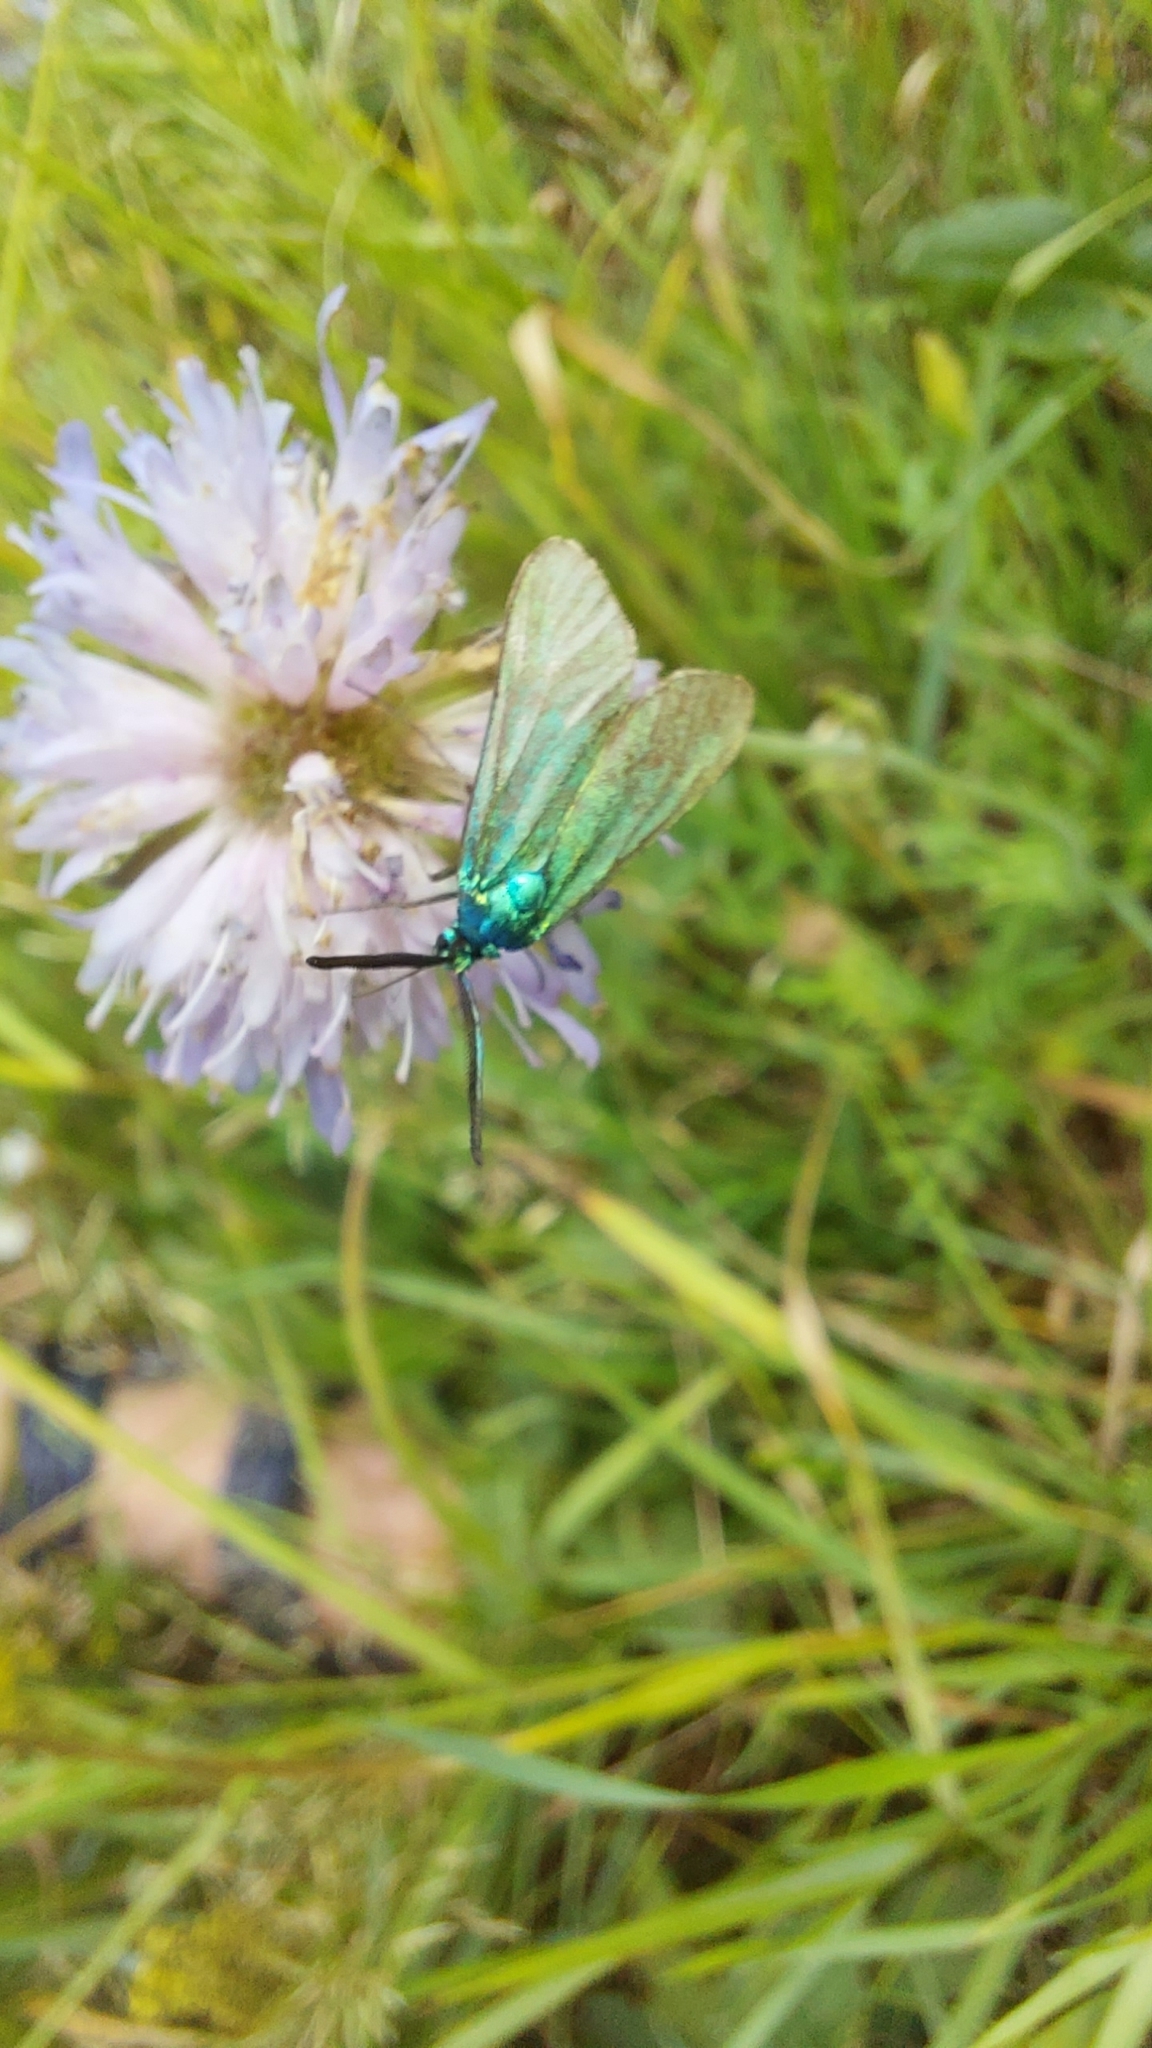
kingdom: Animalia
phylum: Arthropoda
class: Insecta
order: Lepidoptera
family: Zygaenidae
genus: Adscita
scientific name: Adscita statices
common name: Forester
